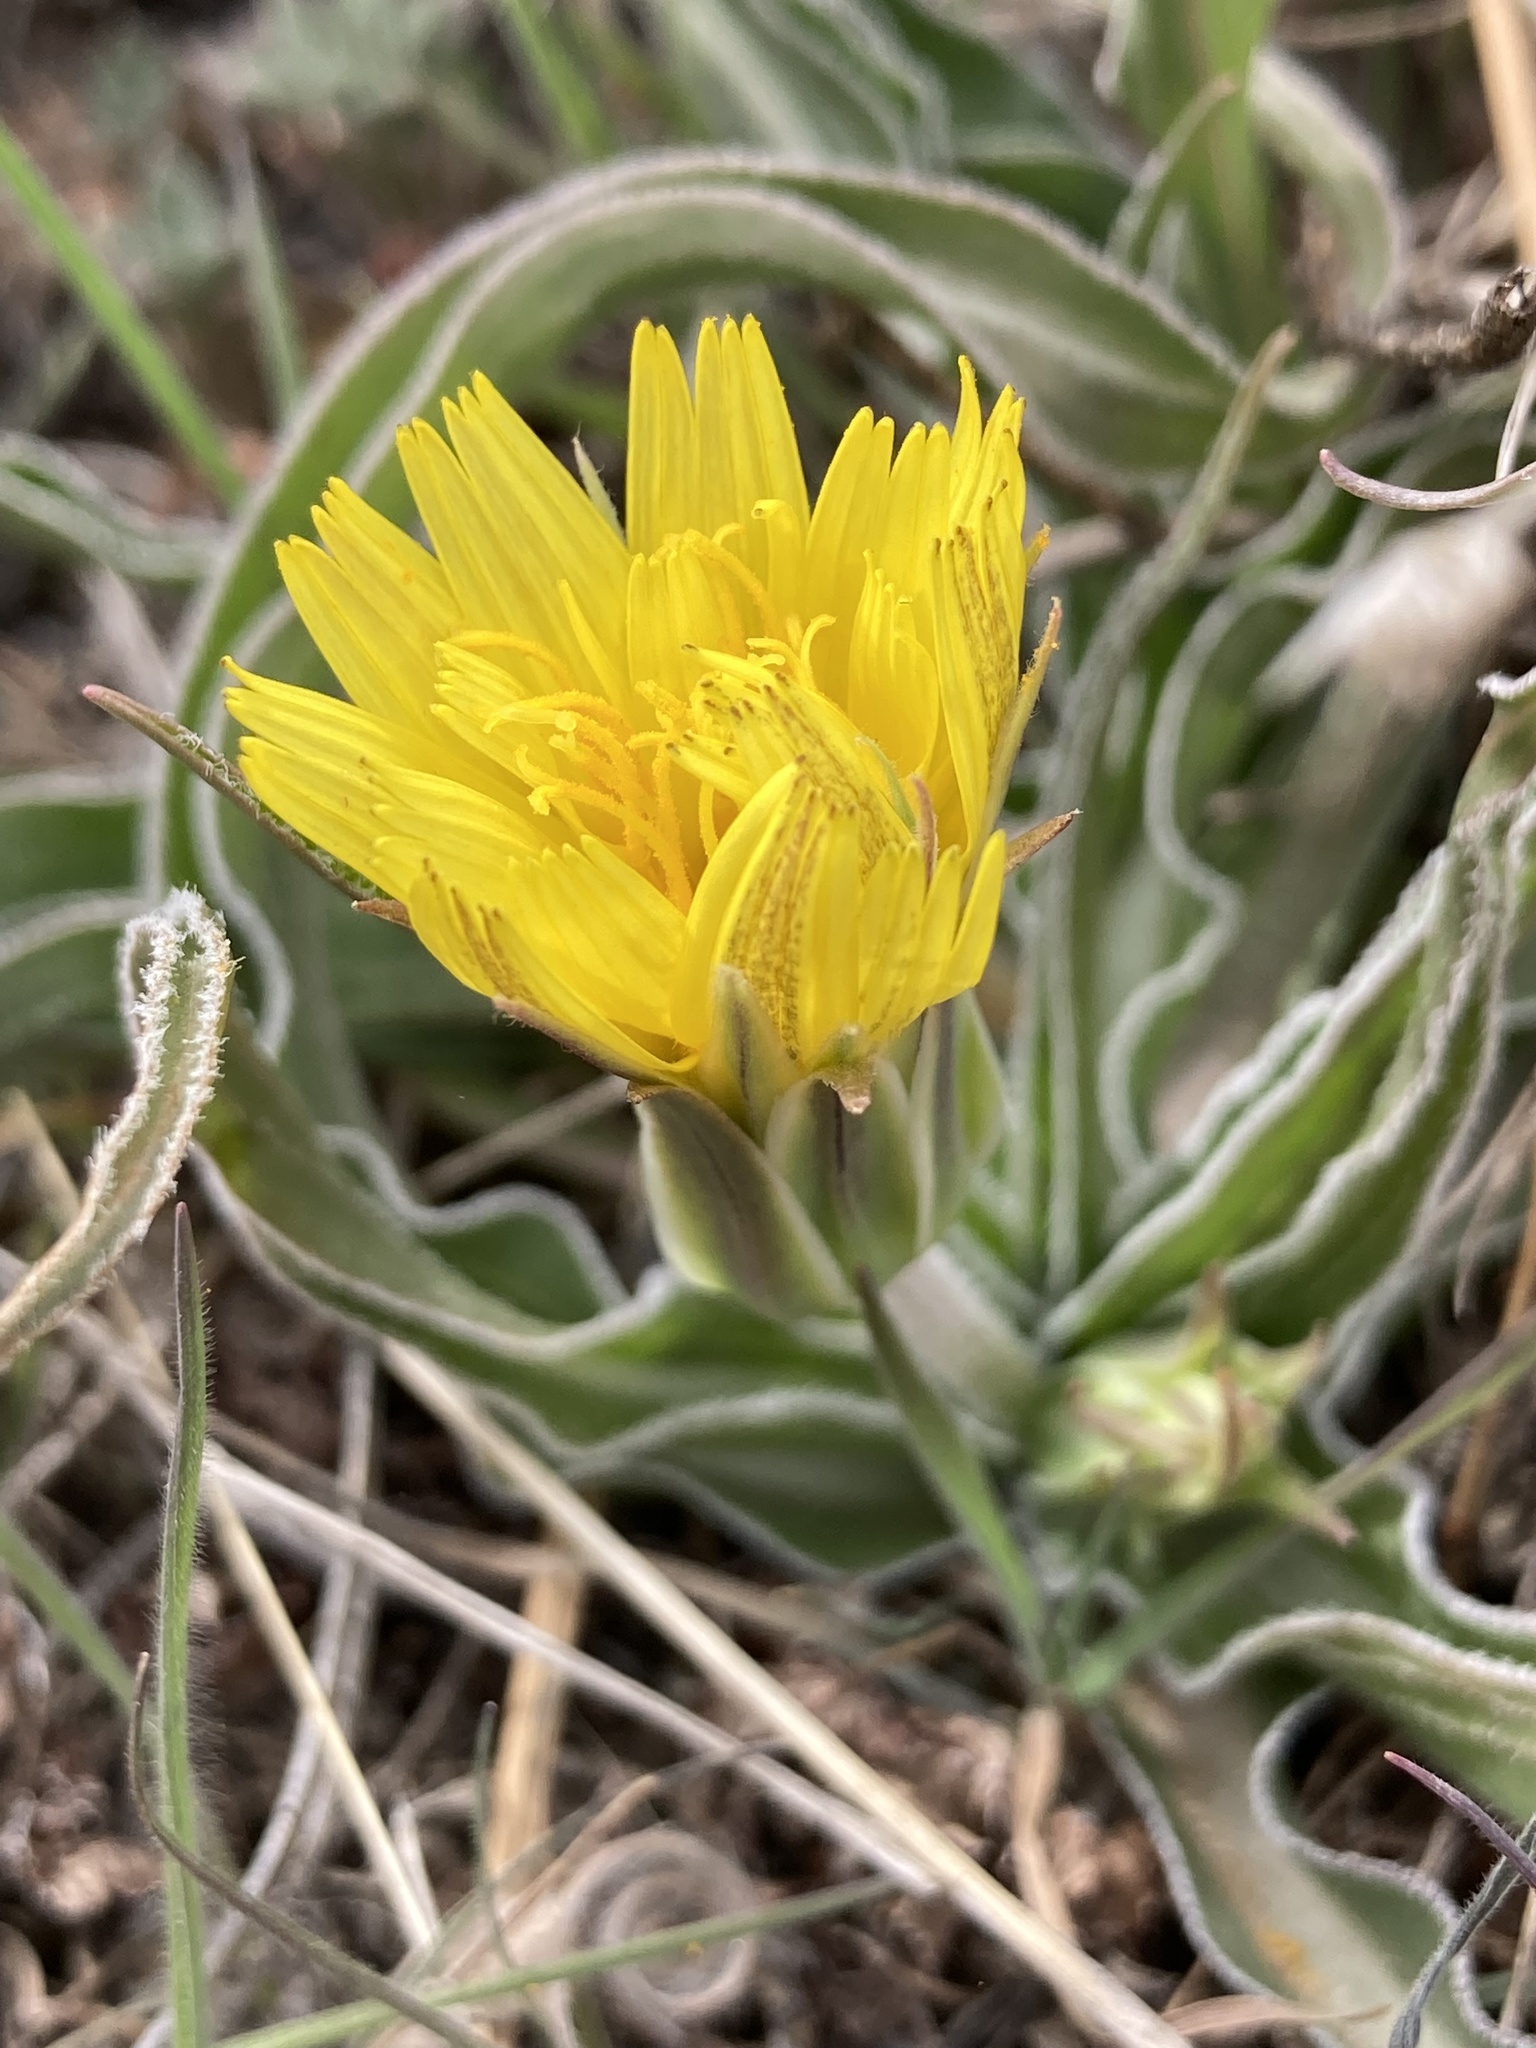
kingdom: Plantae
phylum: Tracheophyta
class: Magnoliopsida
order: Asterales
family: Asteraceae
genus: Microseris
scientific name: Microseris cuspidata
